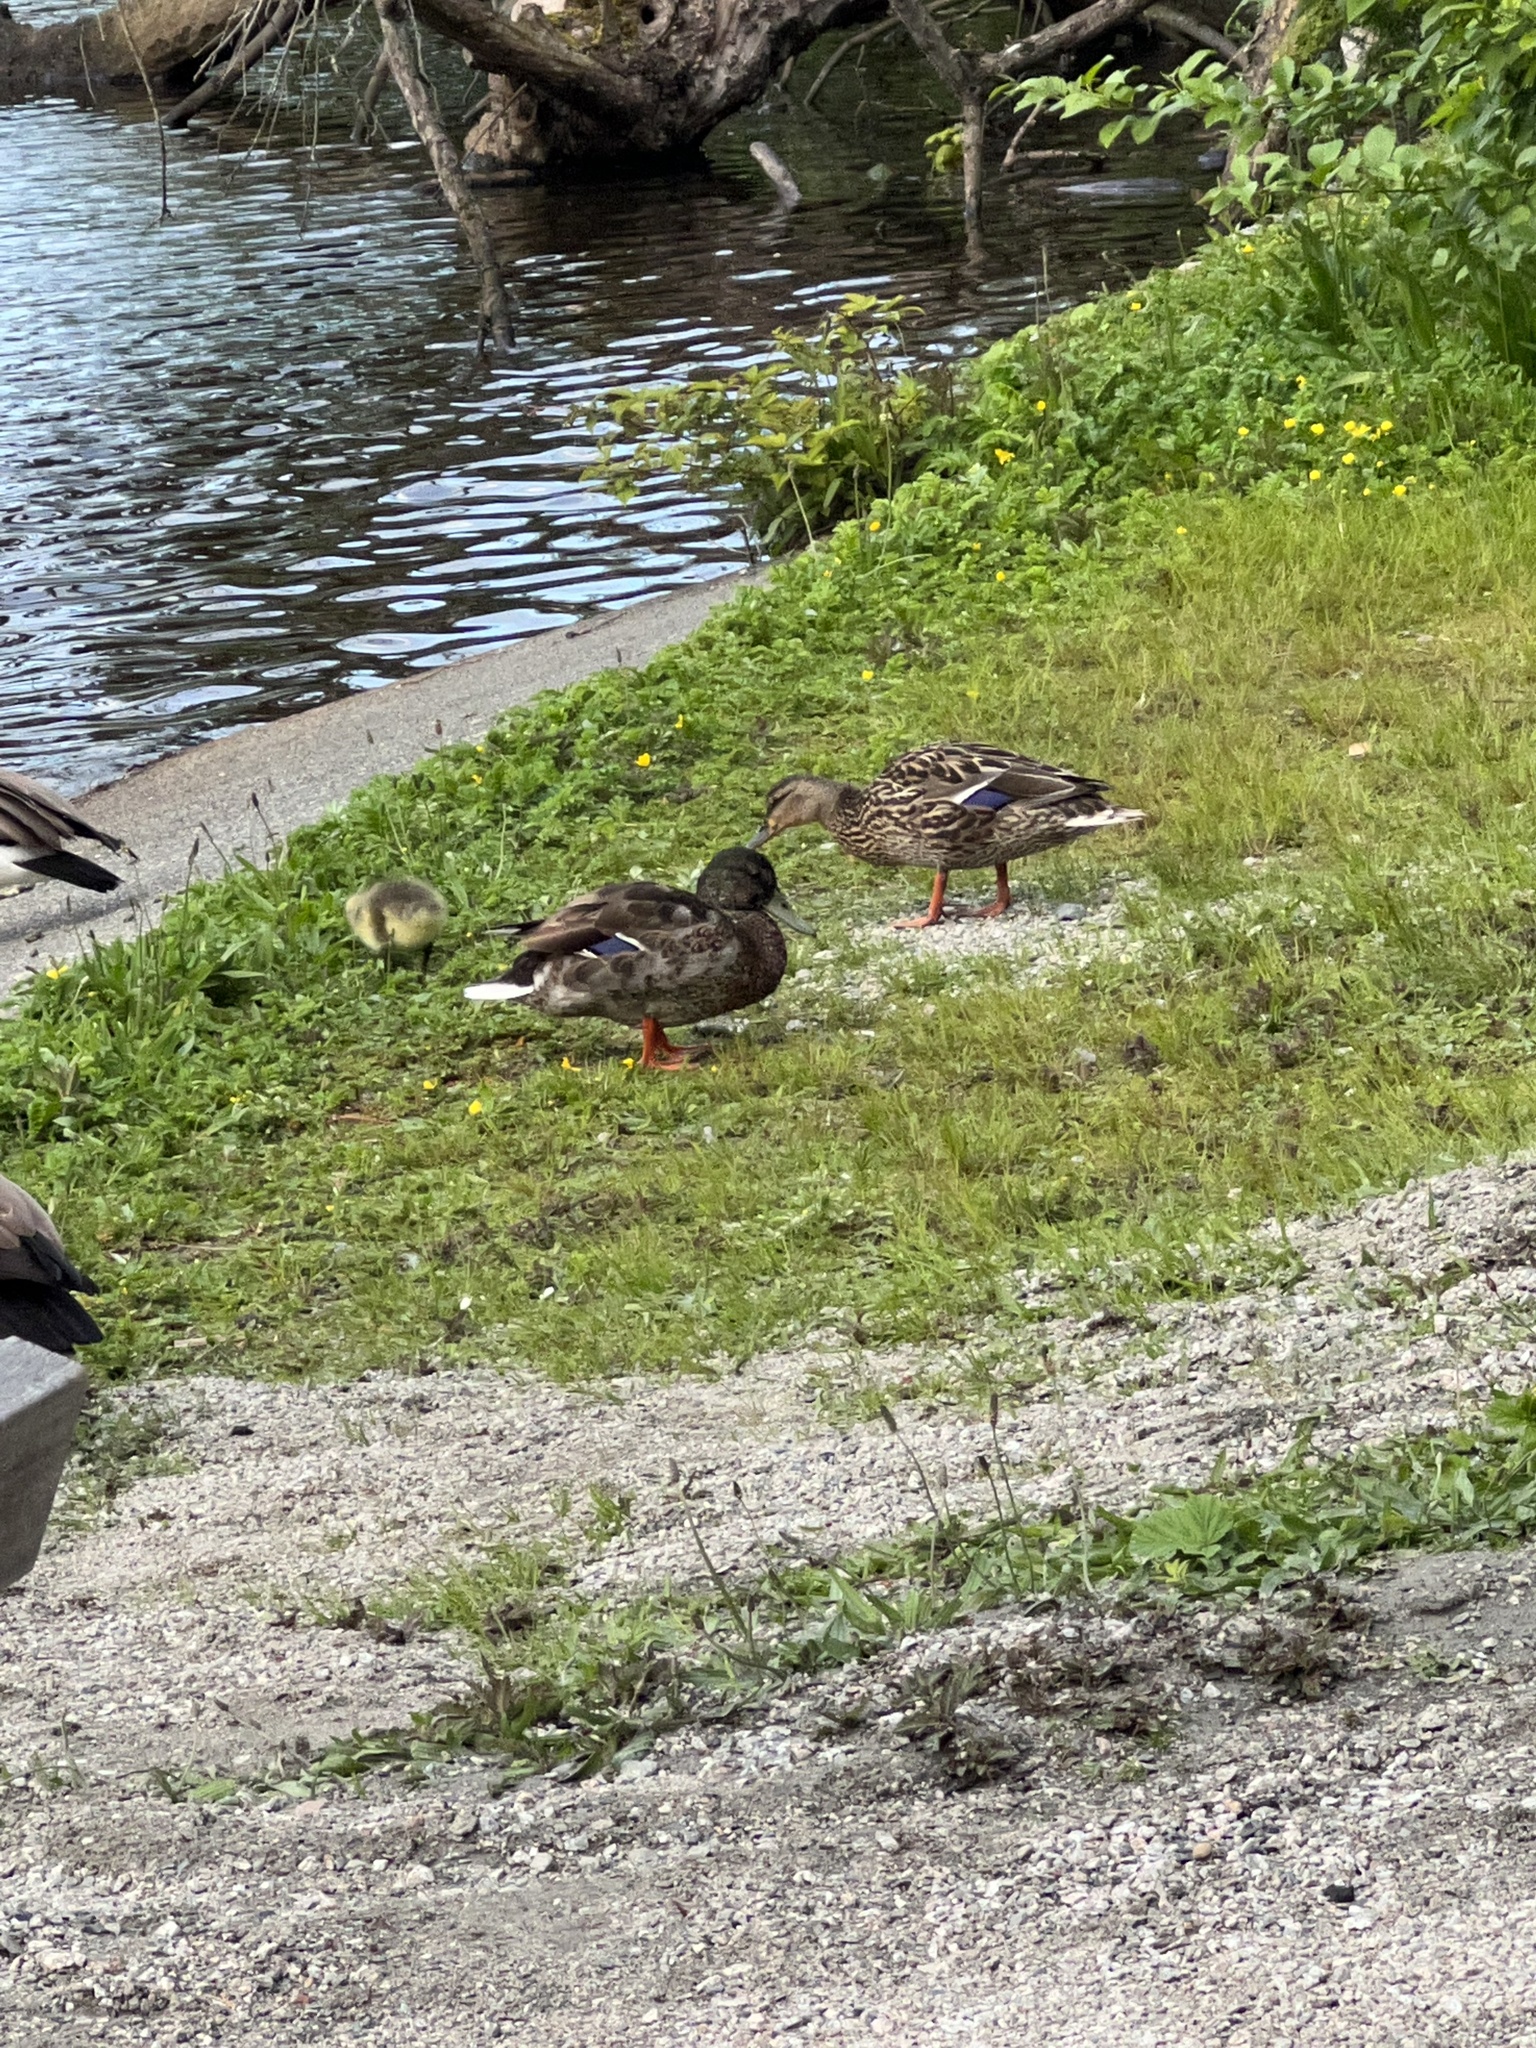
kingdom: Animalia
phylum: Chordata
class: Aves
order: Anseriformes
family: Anatidae
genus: Anas
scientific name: Anas platyrhynchos
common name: Mallard
